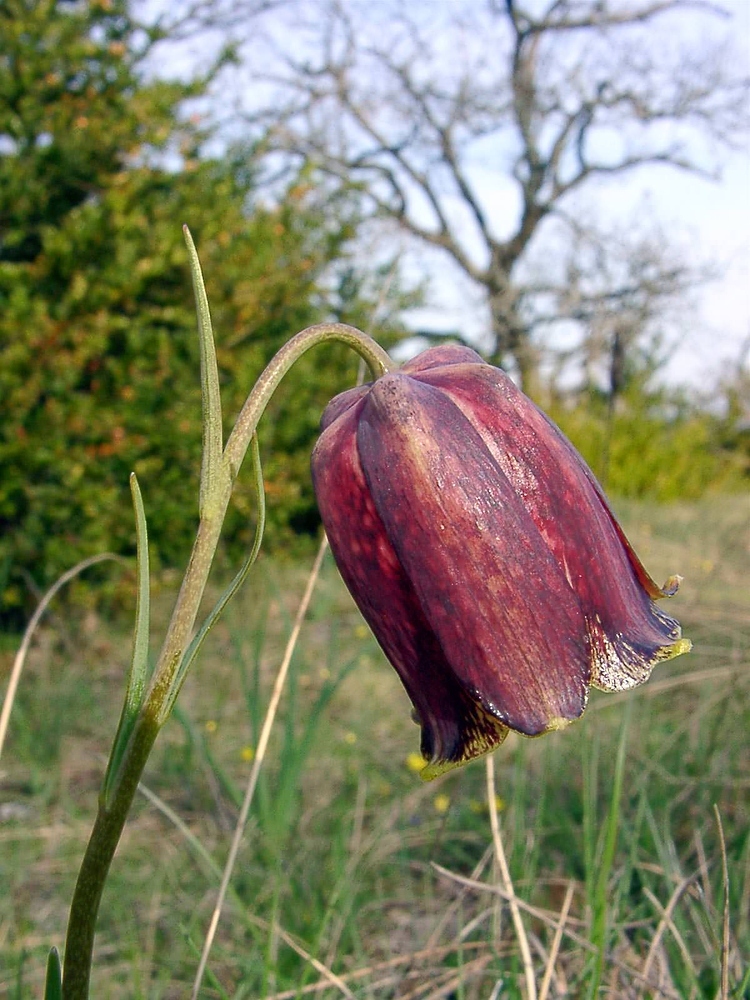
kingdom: Plantae
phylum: Tracheophyta
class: Liliopsida
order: Liliales
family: Liliaceae
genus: Fritillaria
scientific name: Fritillaria pyrenaica
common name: Pyrenean snake's-head
